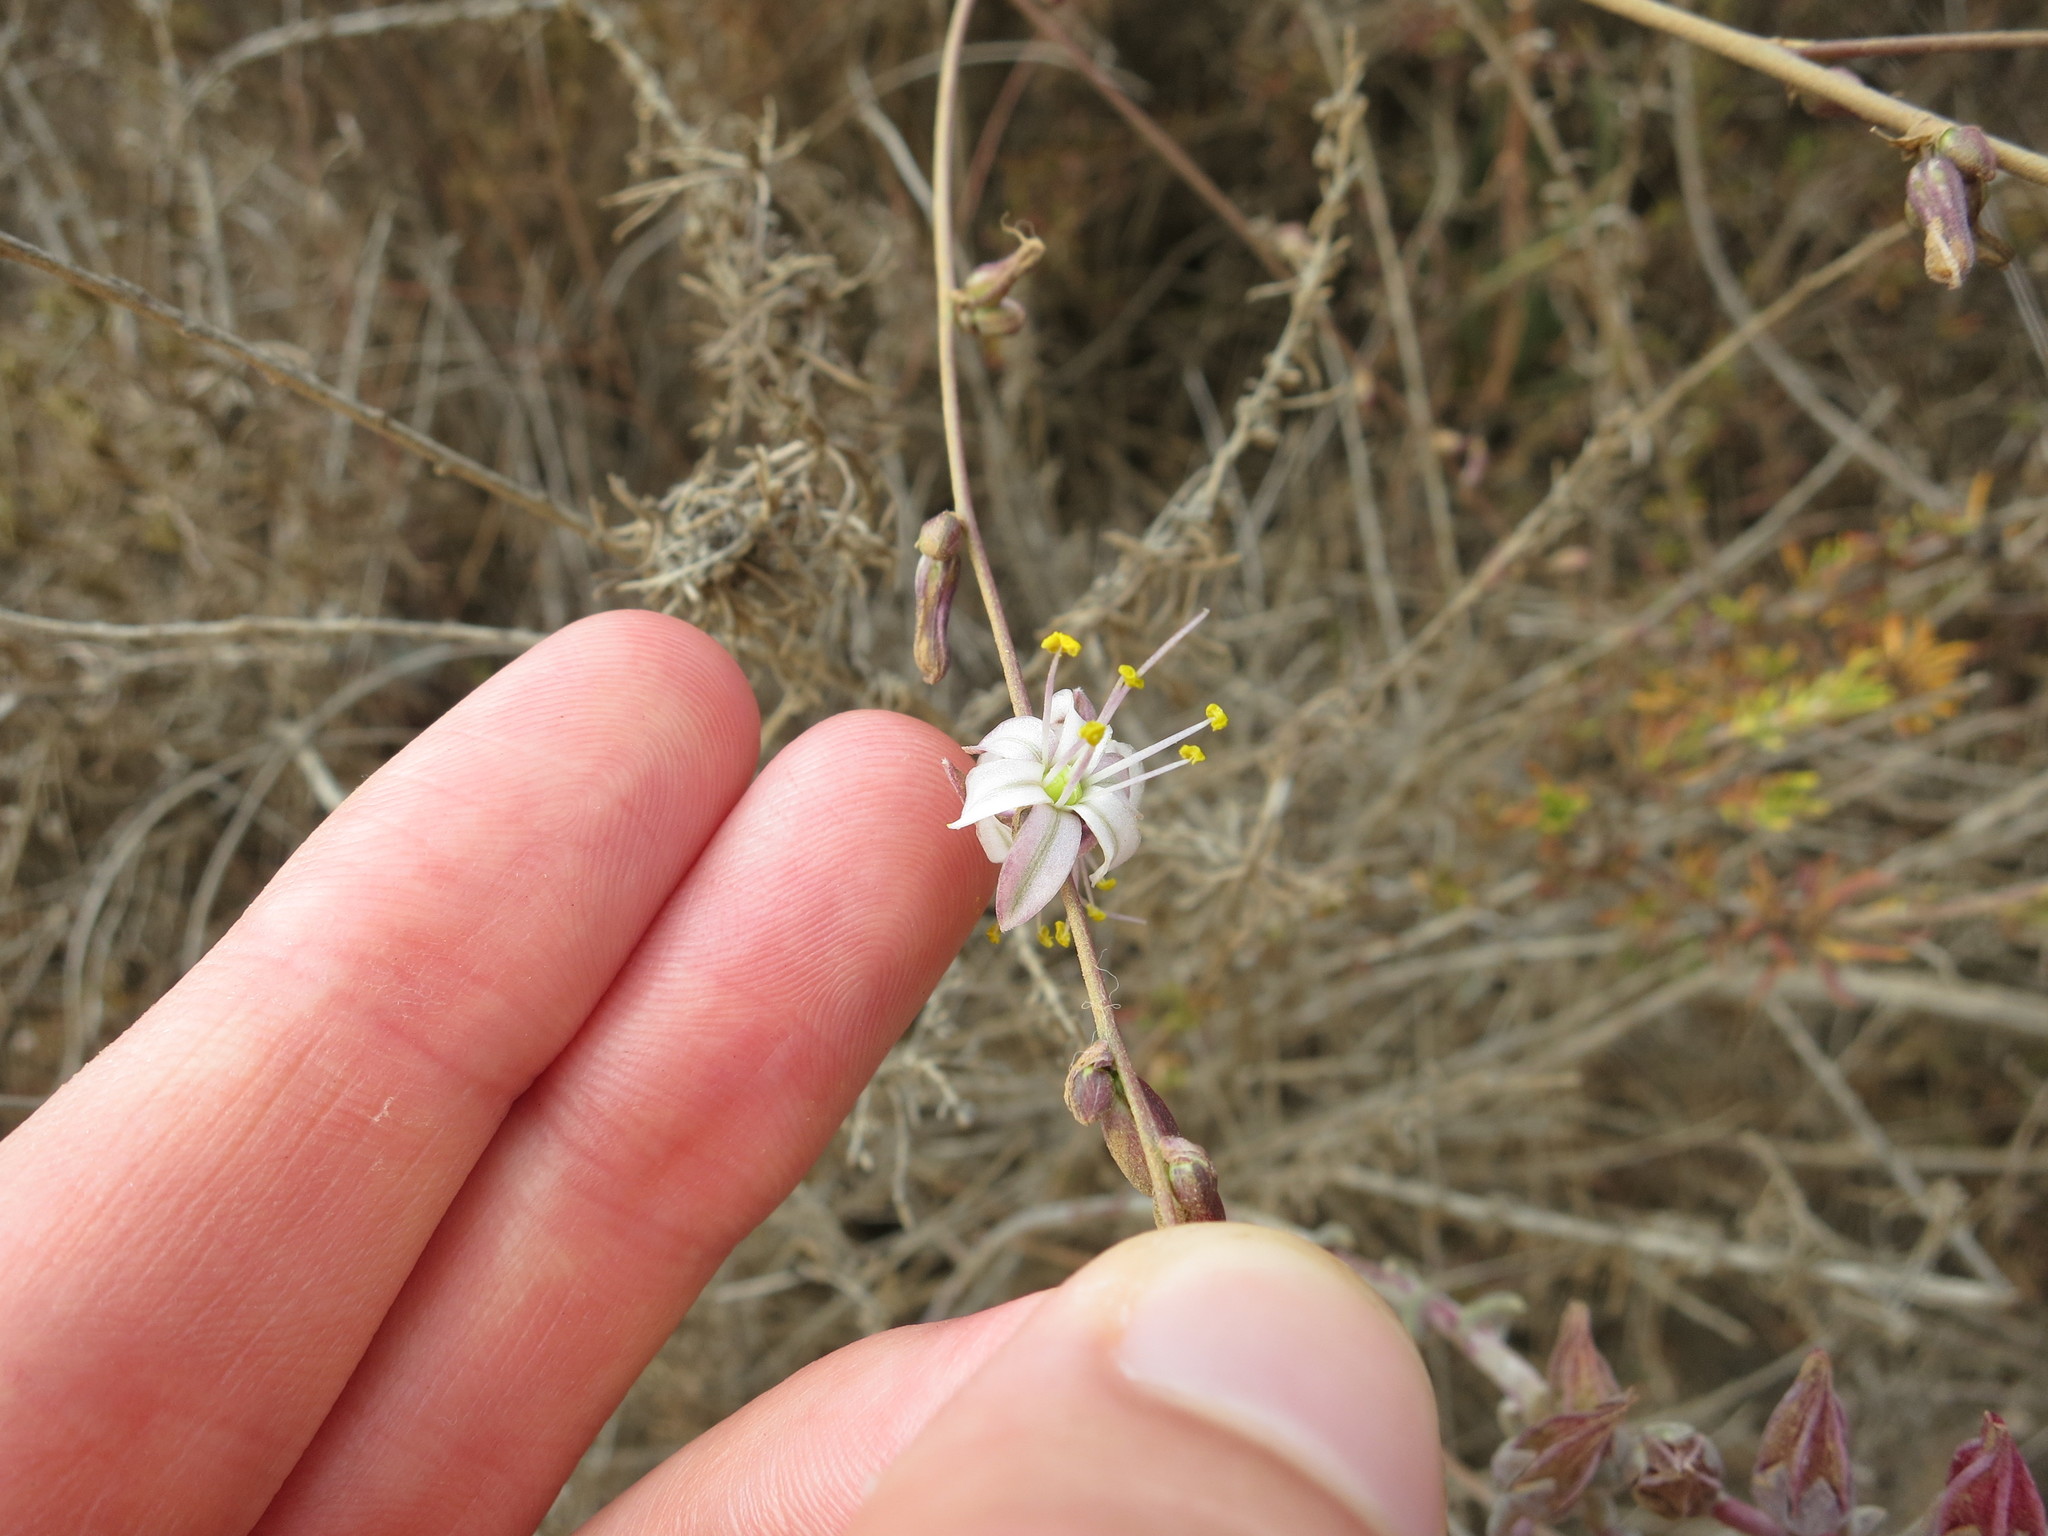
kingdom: Plantae
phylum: Tracheophyta
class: Liliopsida
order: Asparagales
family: Asparagaceae
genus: Hooveria
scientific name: Hooveria parviflora
